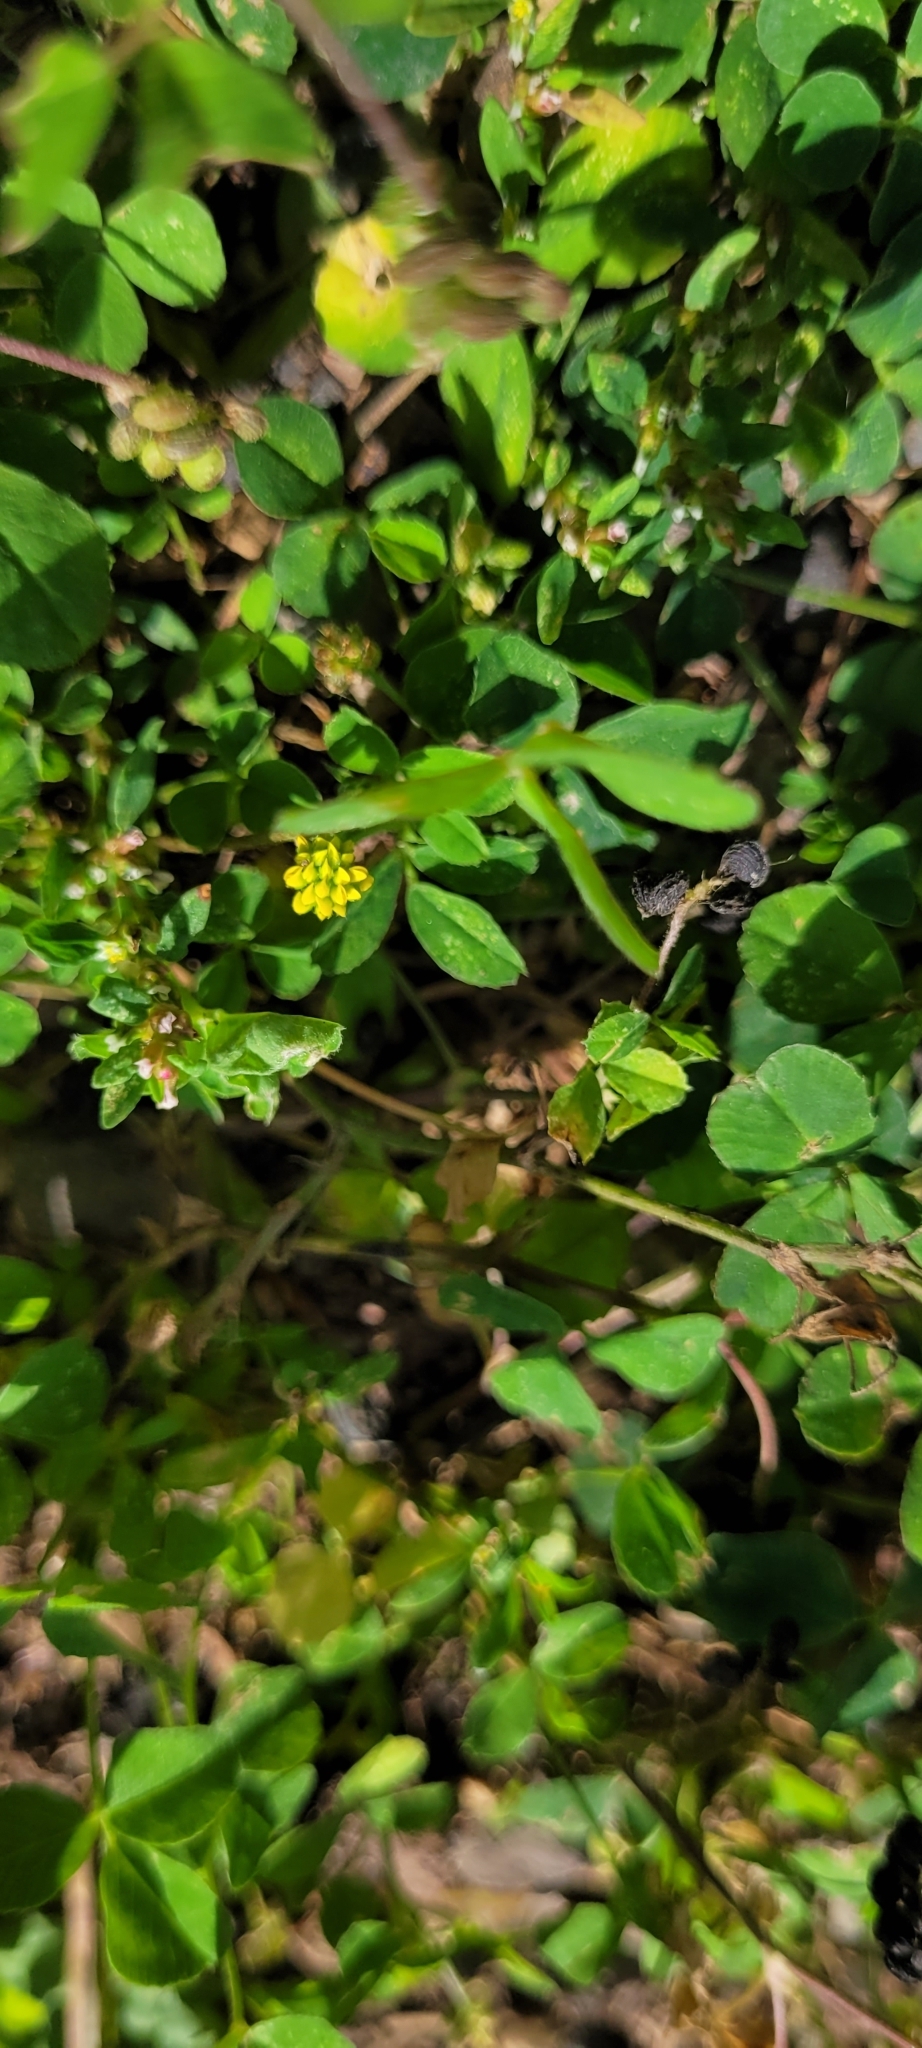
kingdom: Plantae
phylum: Tracheophyta
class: Magnoliopsida
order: Fabales
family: Fabaceae
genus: Medicago
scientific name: Medicago lupulina
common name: Black medick
